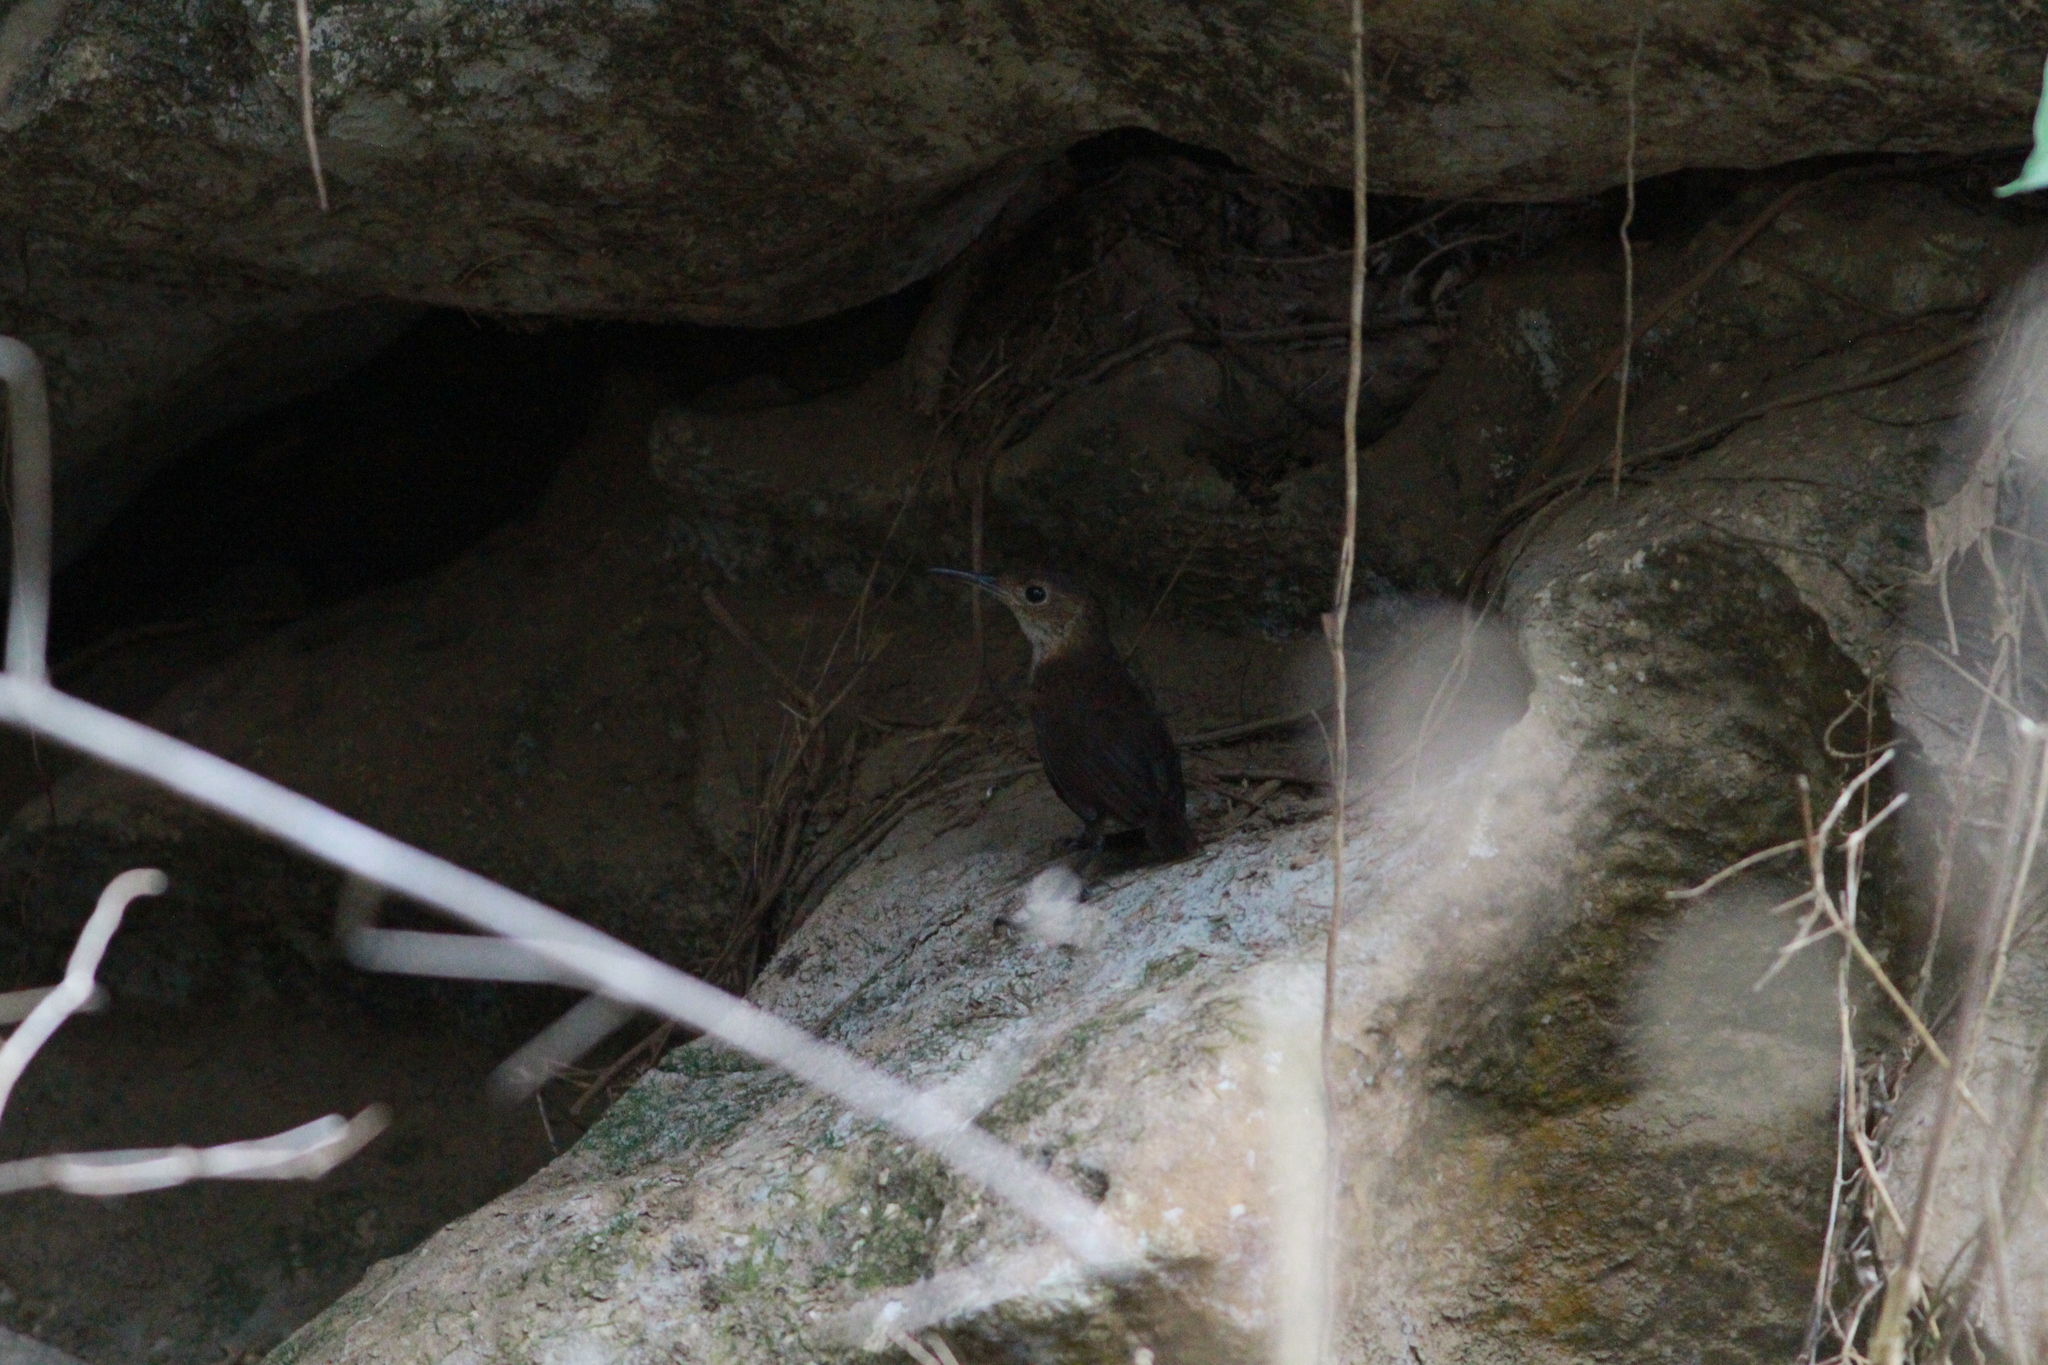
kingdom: Animalia
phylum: Chordata
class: Aves
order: Passeriformes
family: Troglodytidae
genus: Hylorchilus
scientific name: Hylorchilus navai
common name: Nava's wren
